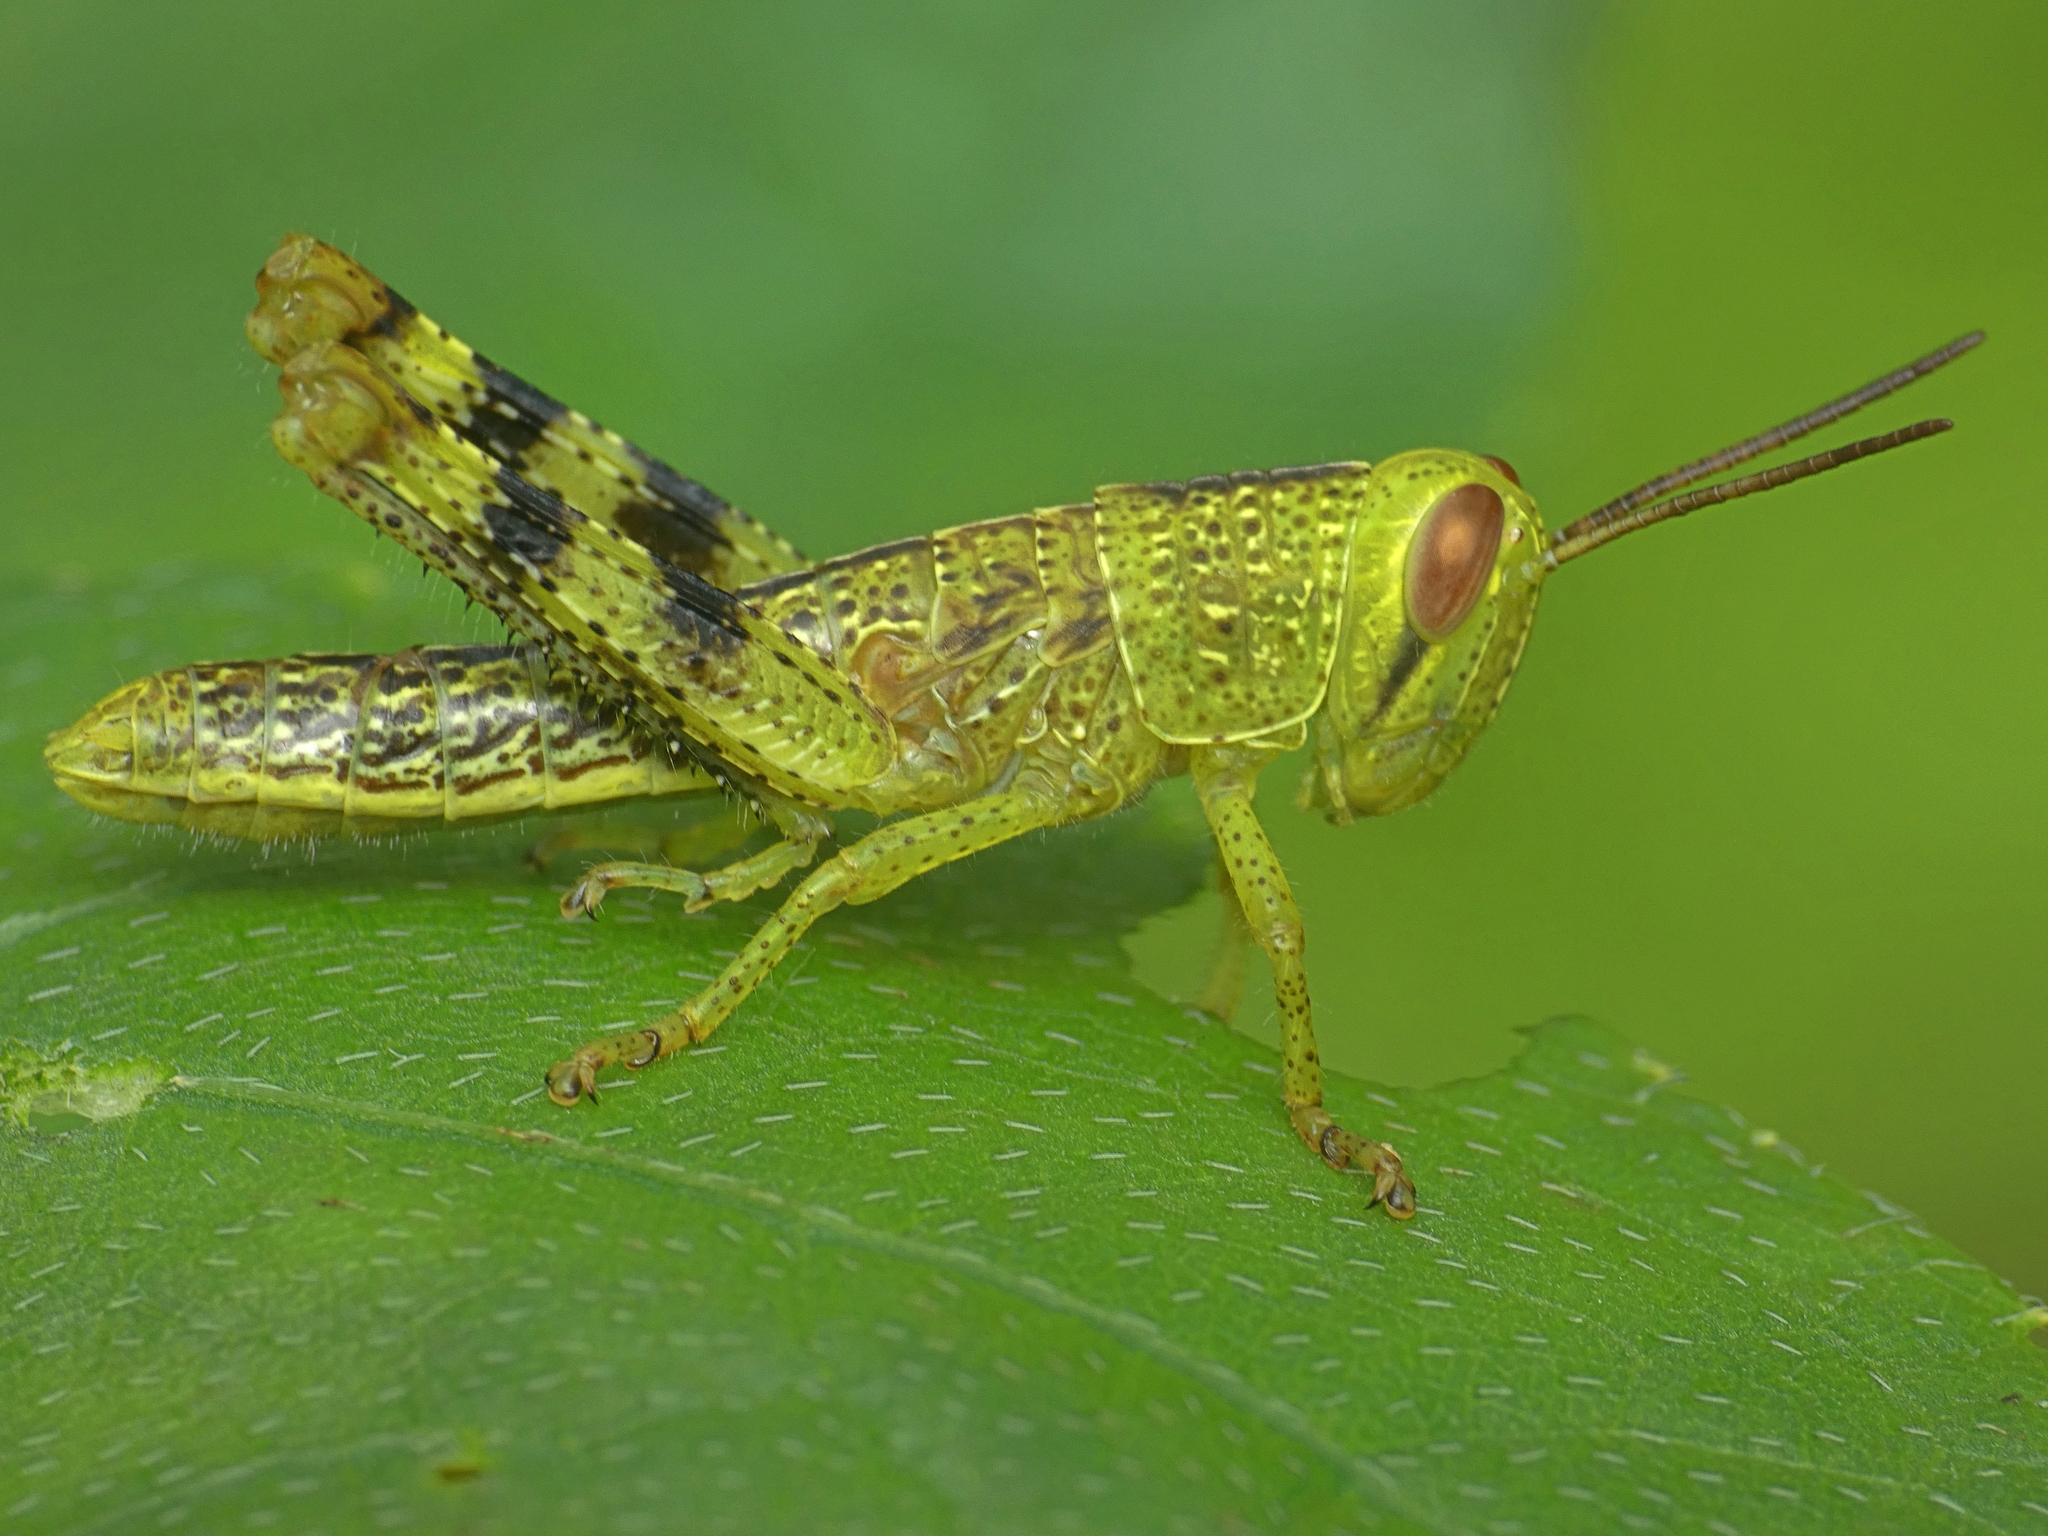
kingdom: Animalia
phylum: Arthropoda
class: Insecta
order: Orthoptera
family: Acrididae
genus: Valanga
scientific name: Valanga irregularis
